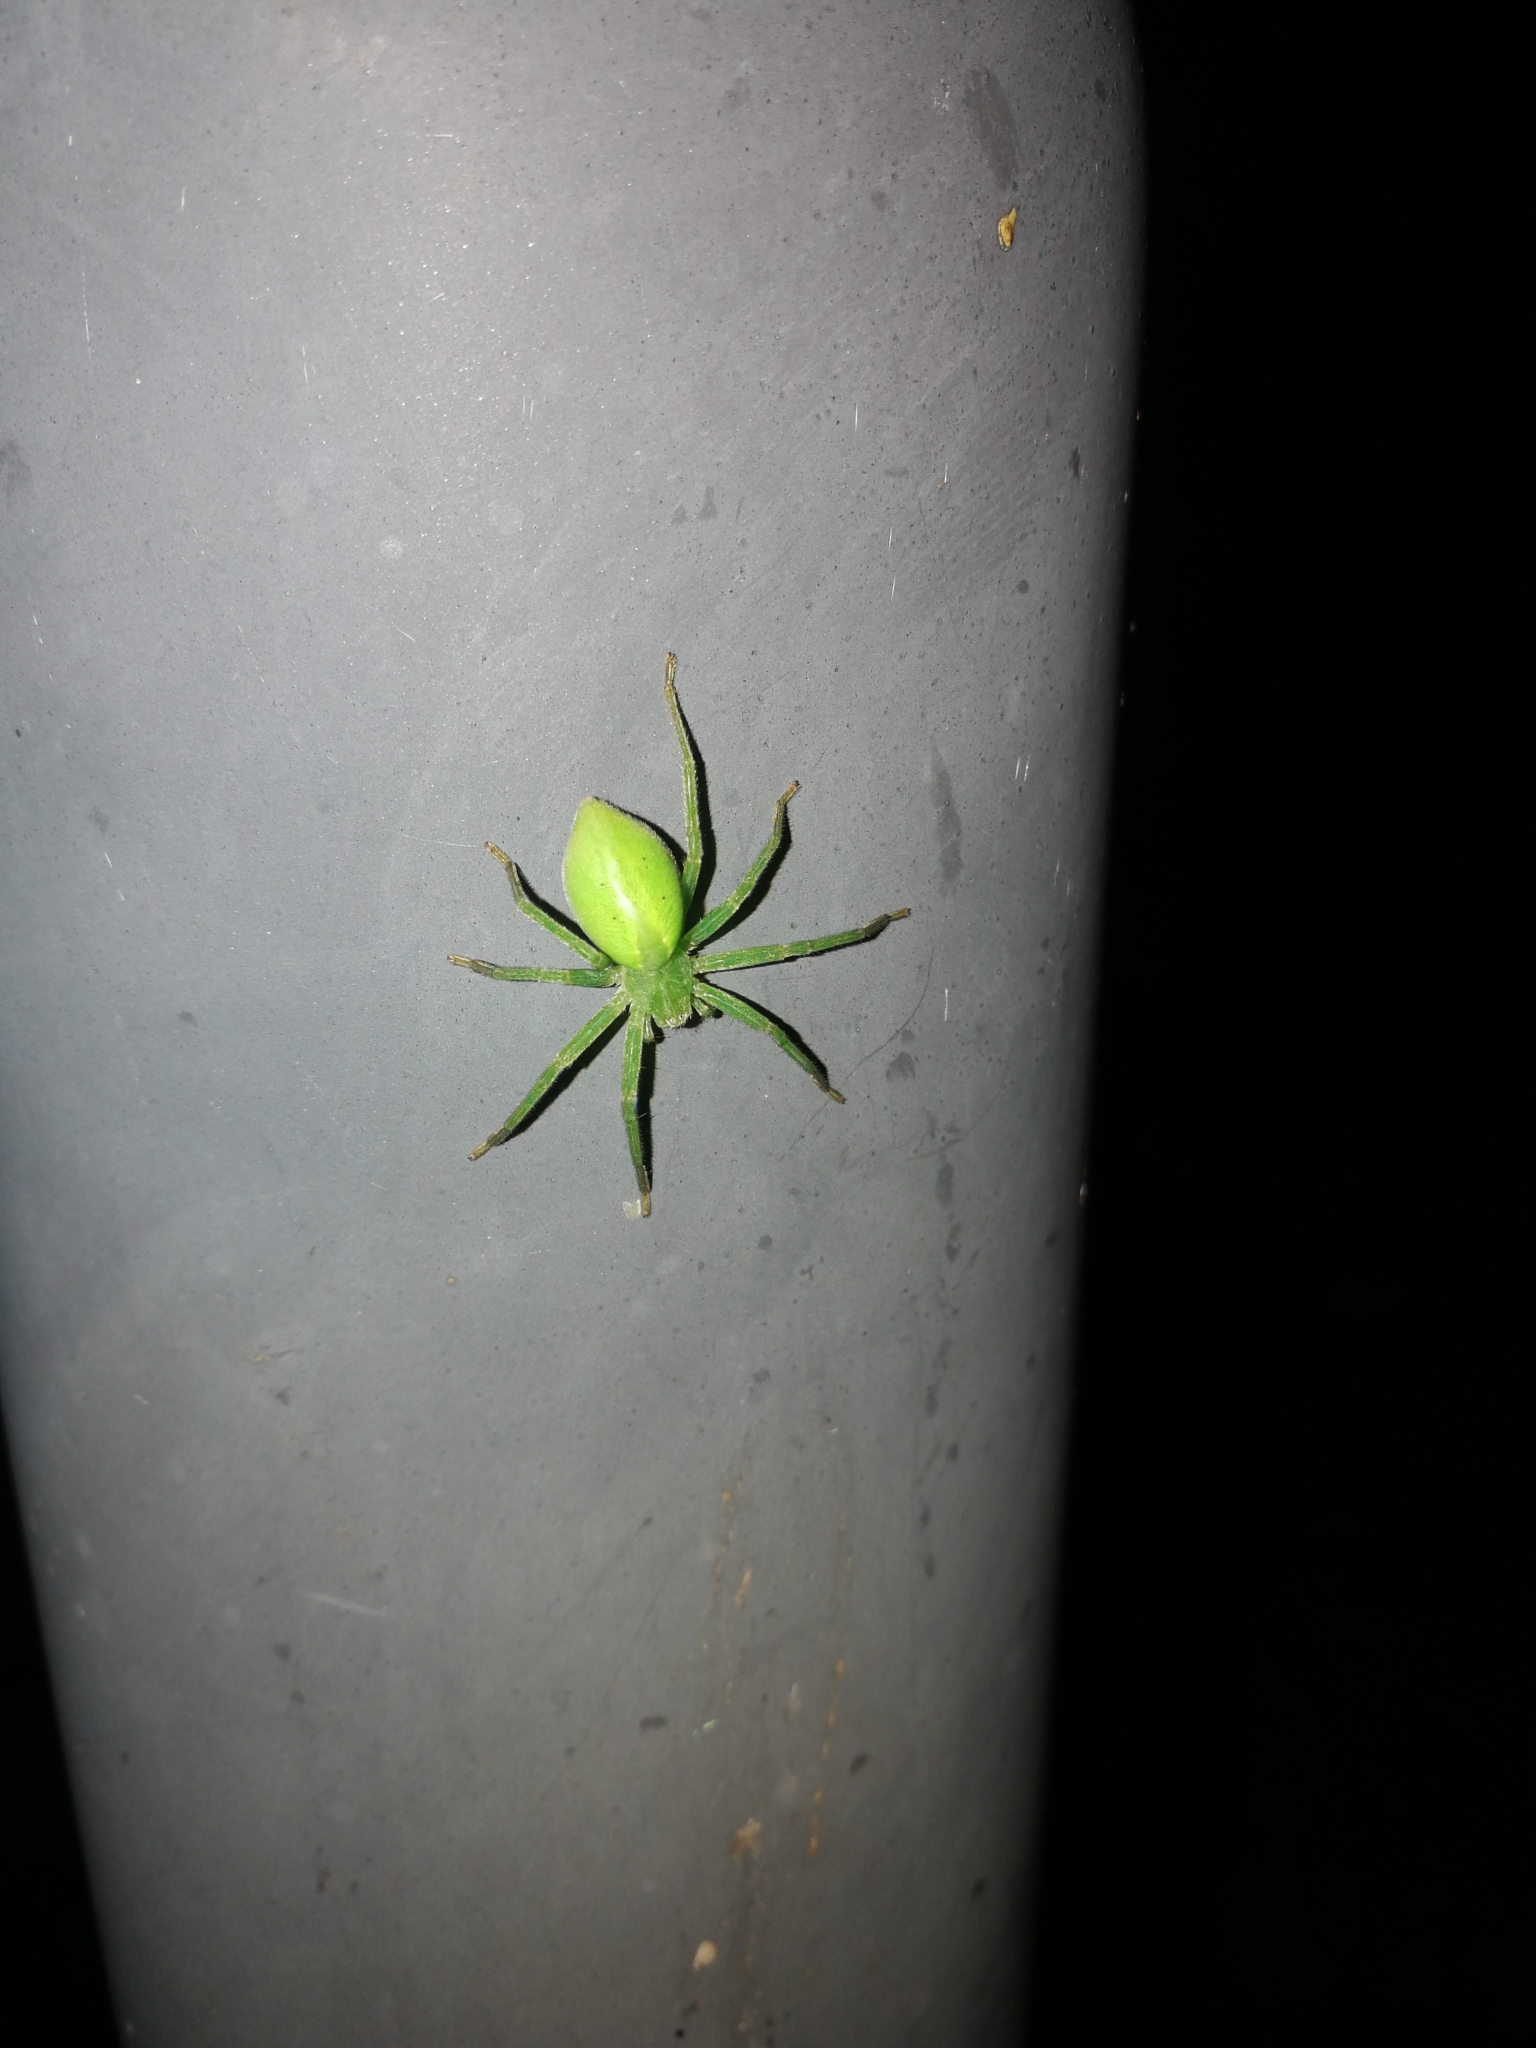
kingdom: Animalia
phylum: Arthropoda
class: Arachnida
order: Araneae
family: Sparassidae
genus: Micrommata
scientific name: Micrommata virescens
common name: Green spider
